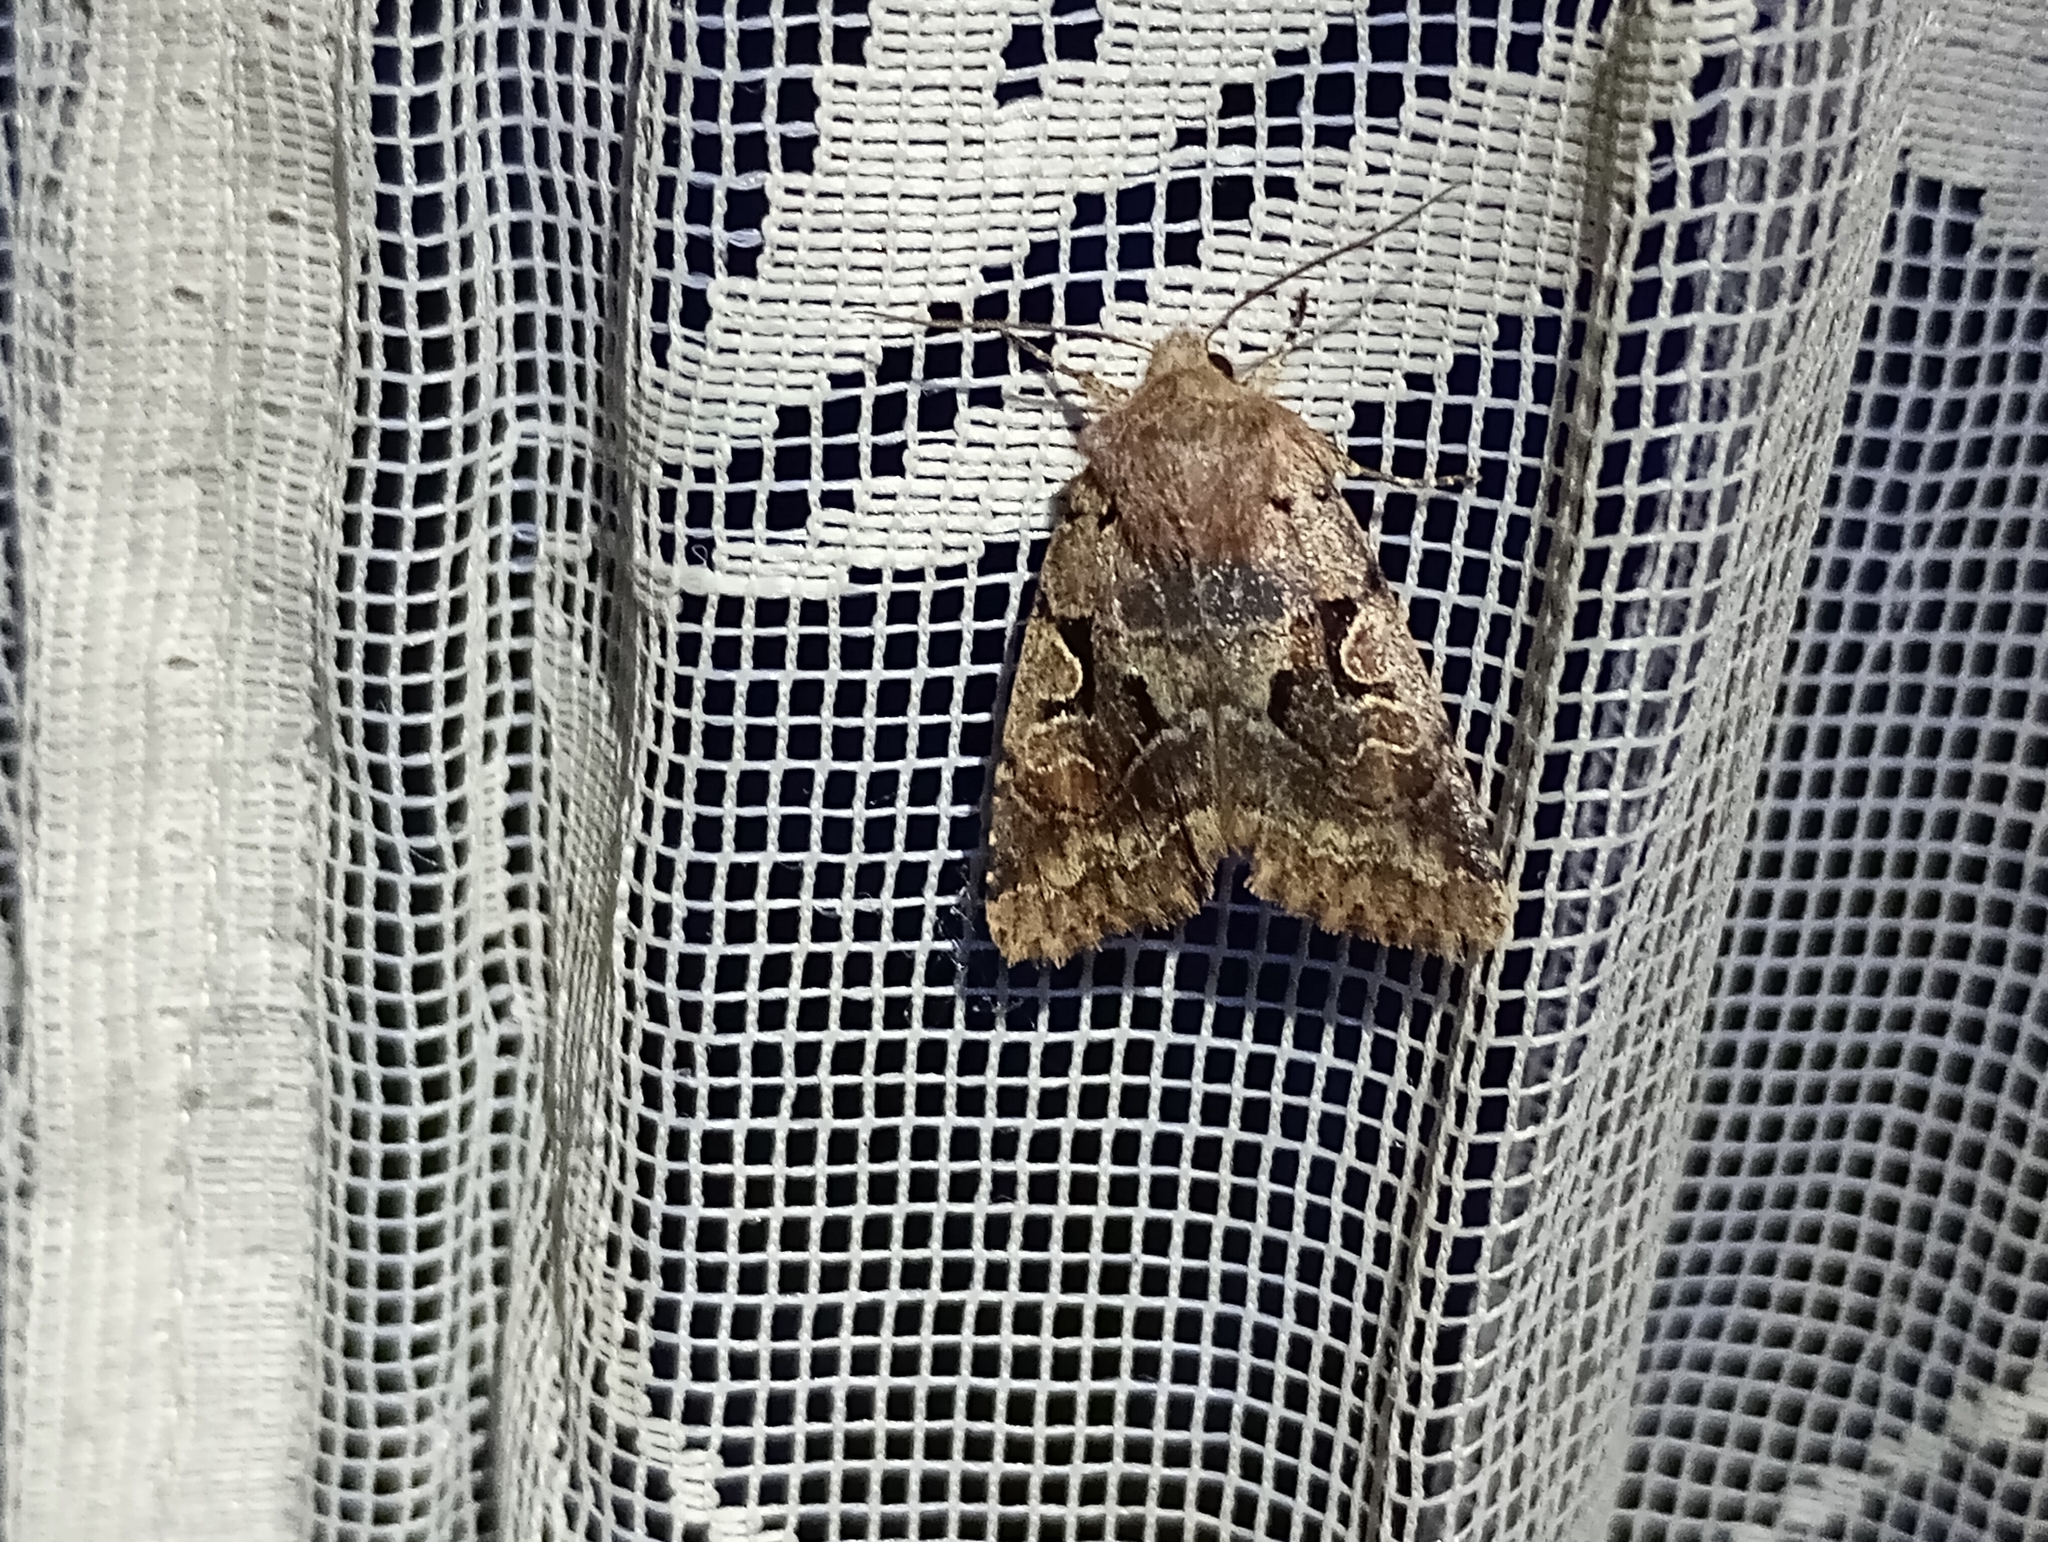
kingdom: Animalia
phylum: Arthropoda
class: Insecta
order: Lepidoptera
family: Noctuidae
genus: Orthosia
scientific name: Orthosia gothica
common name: Hebrew character
